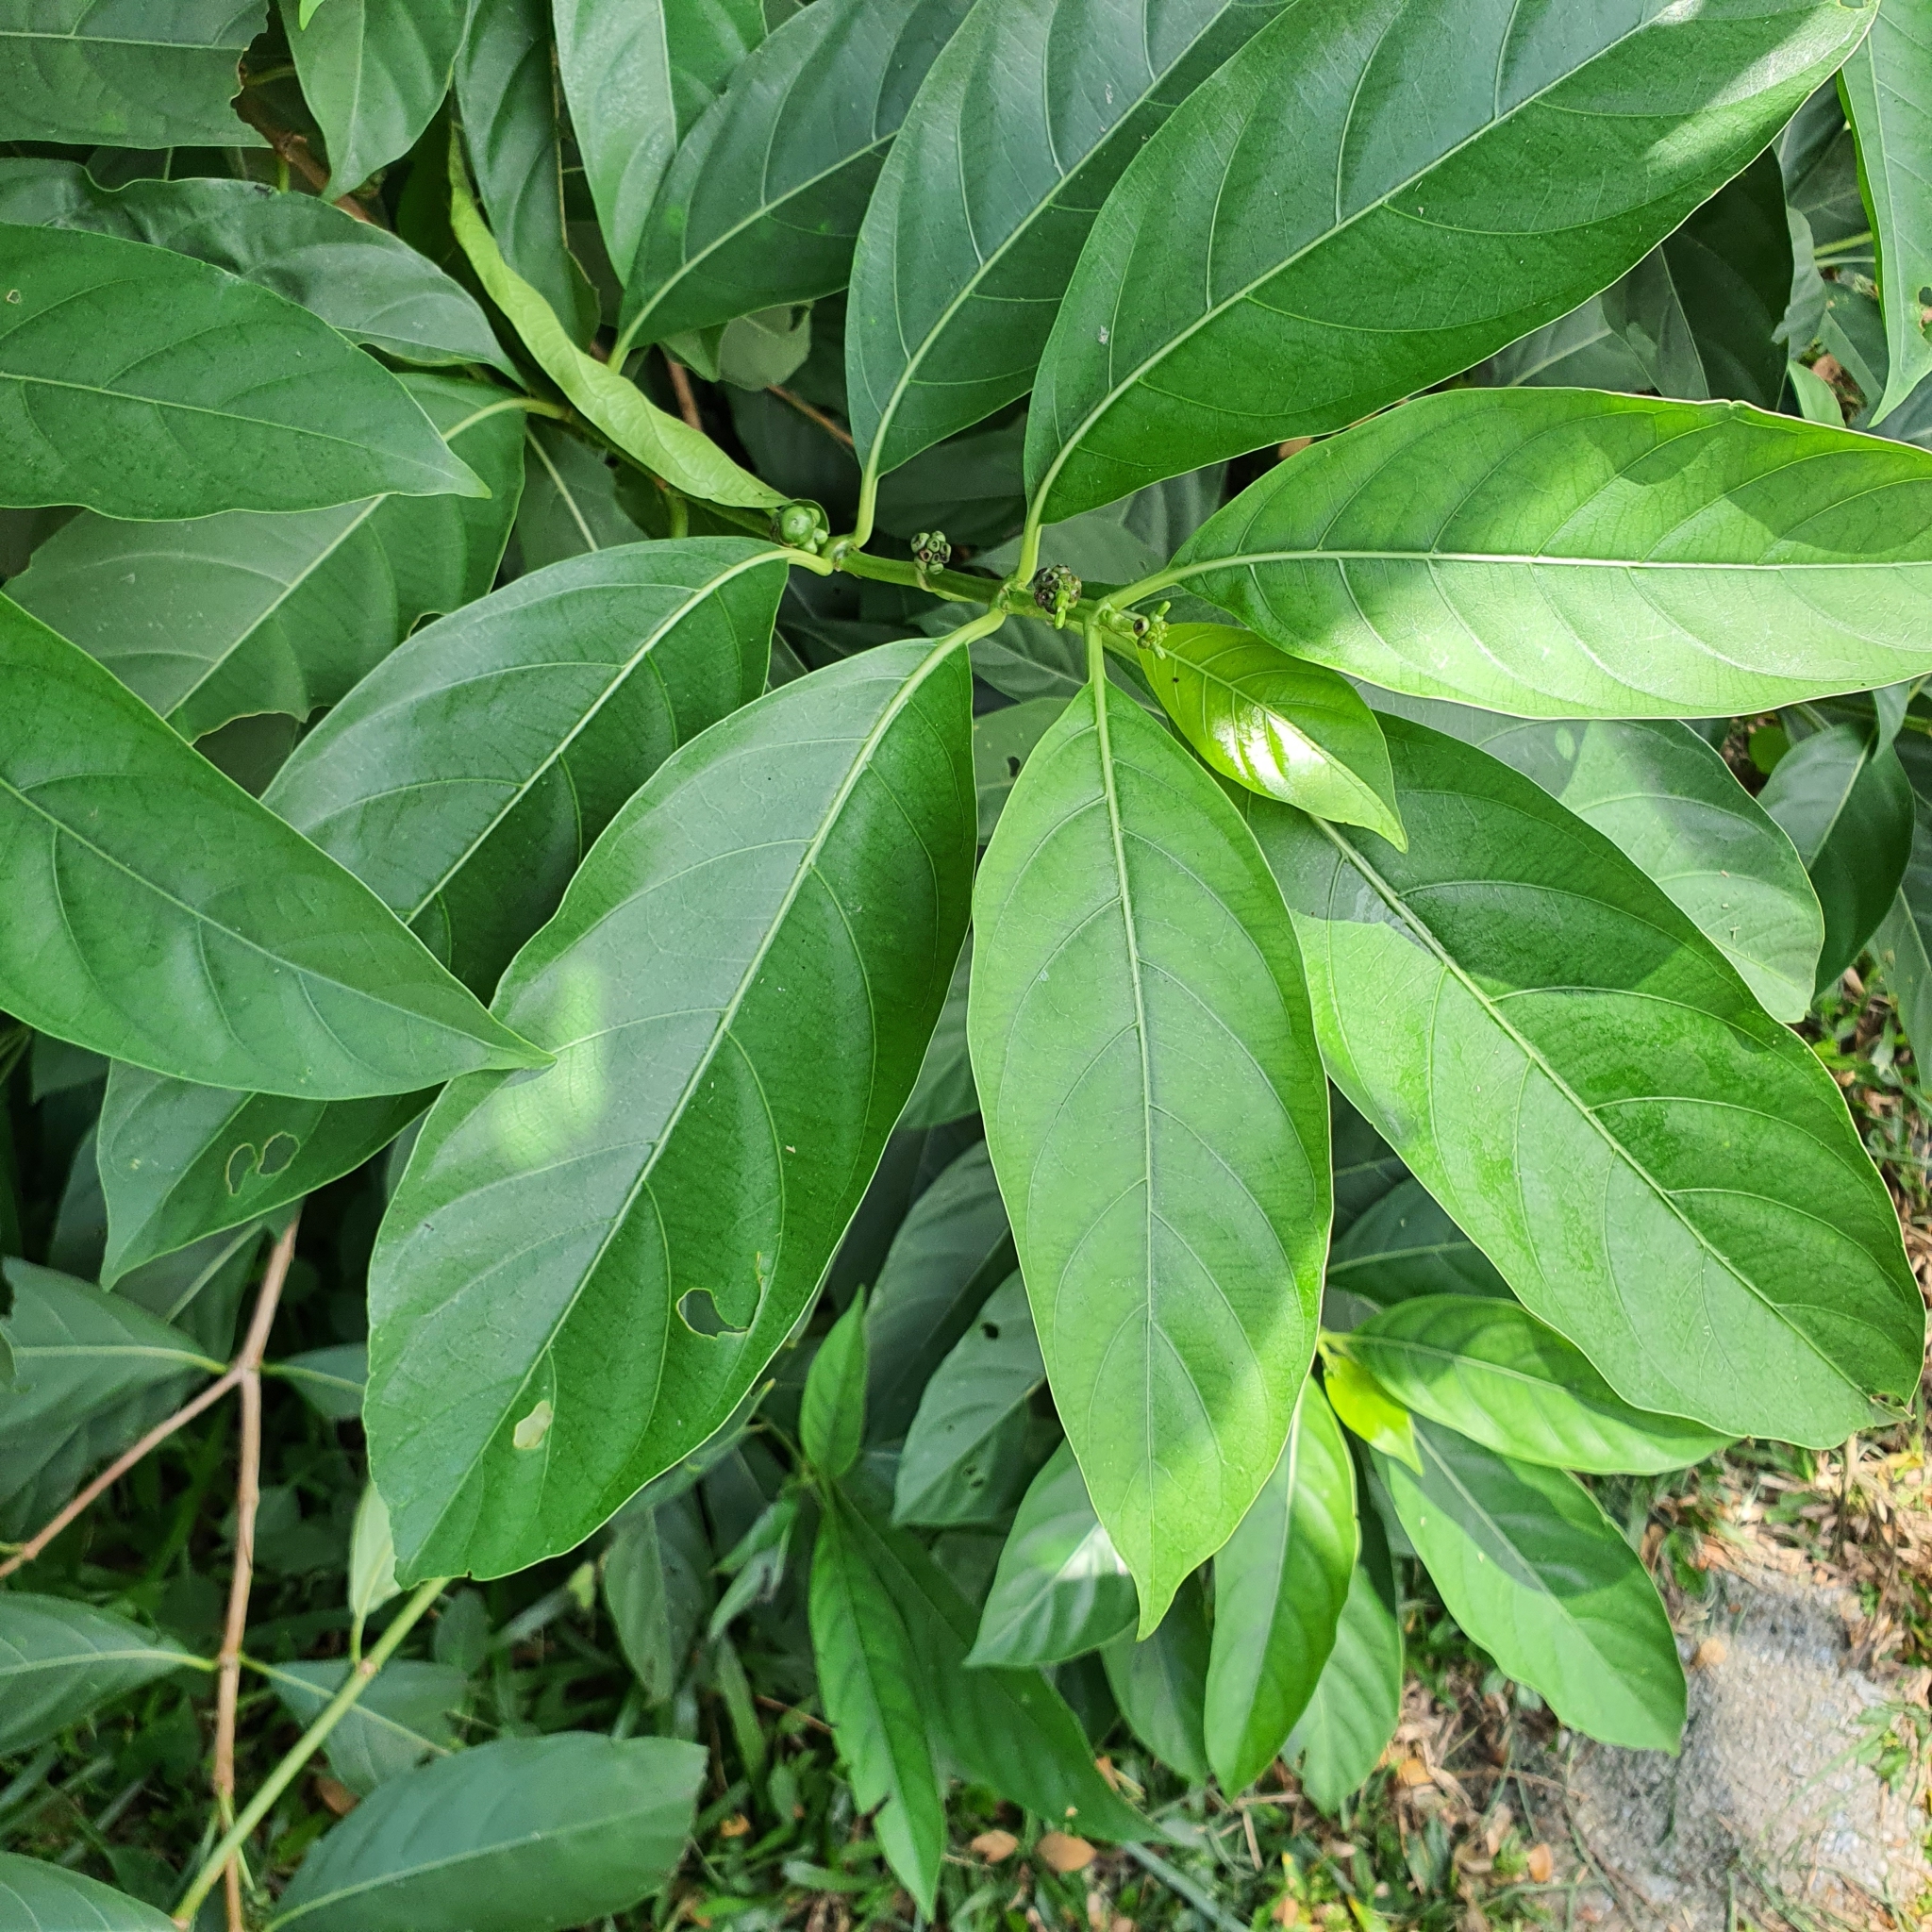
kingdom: Plantae
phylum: Tracheophyta
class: Magnoliopsida
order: Gentianales
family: Rubiaceae
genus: Morinda
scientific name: Morinda elliptica
